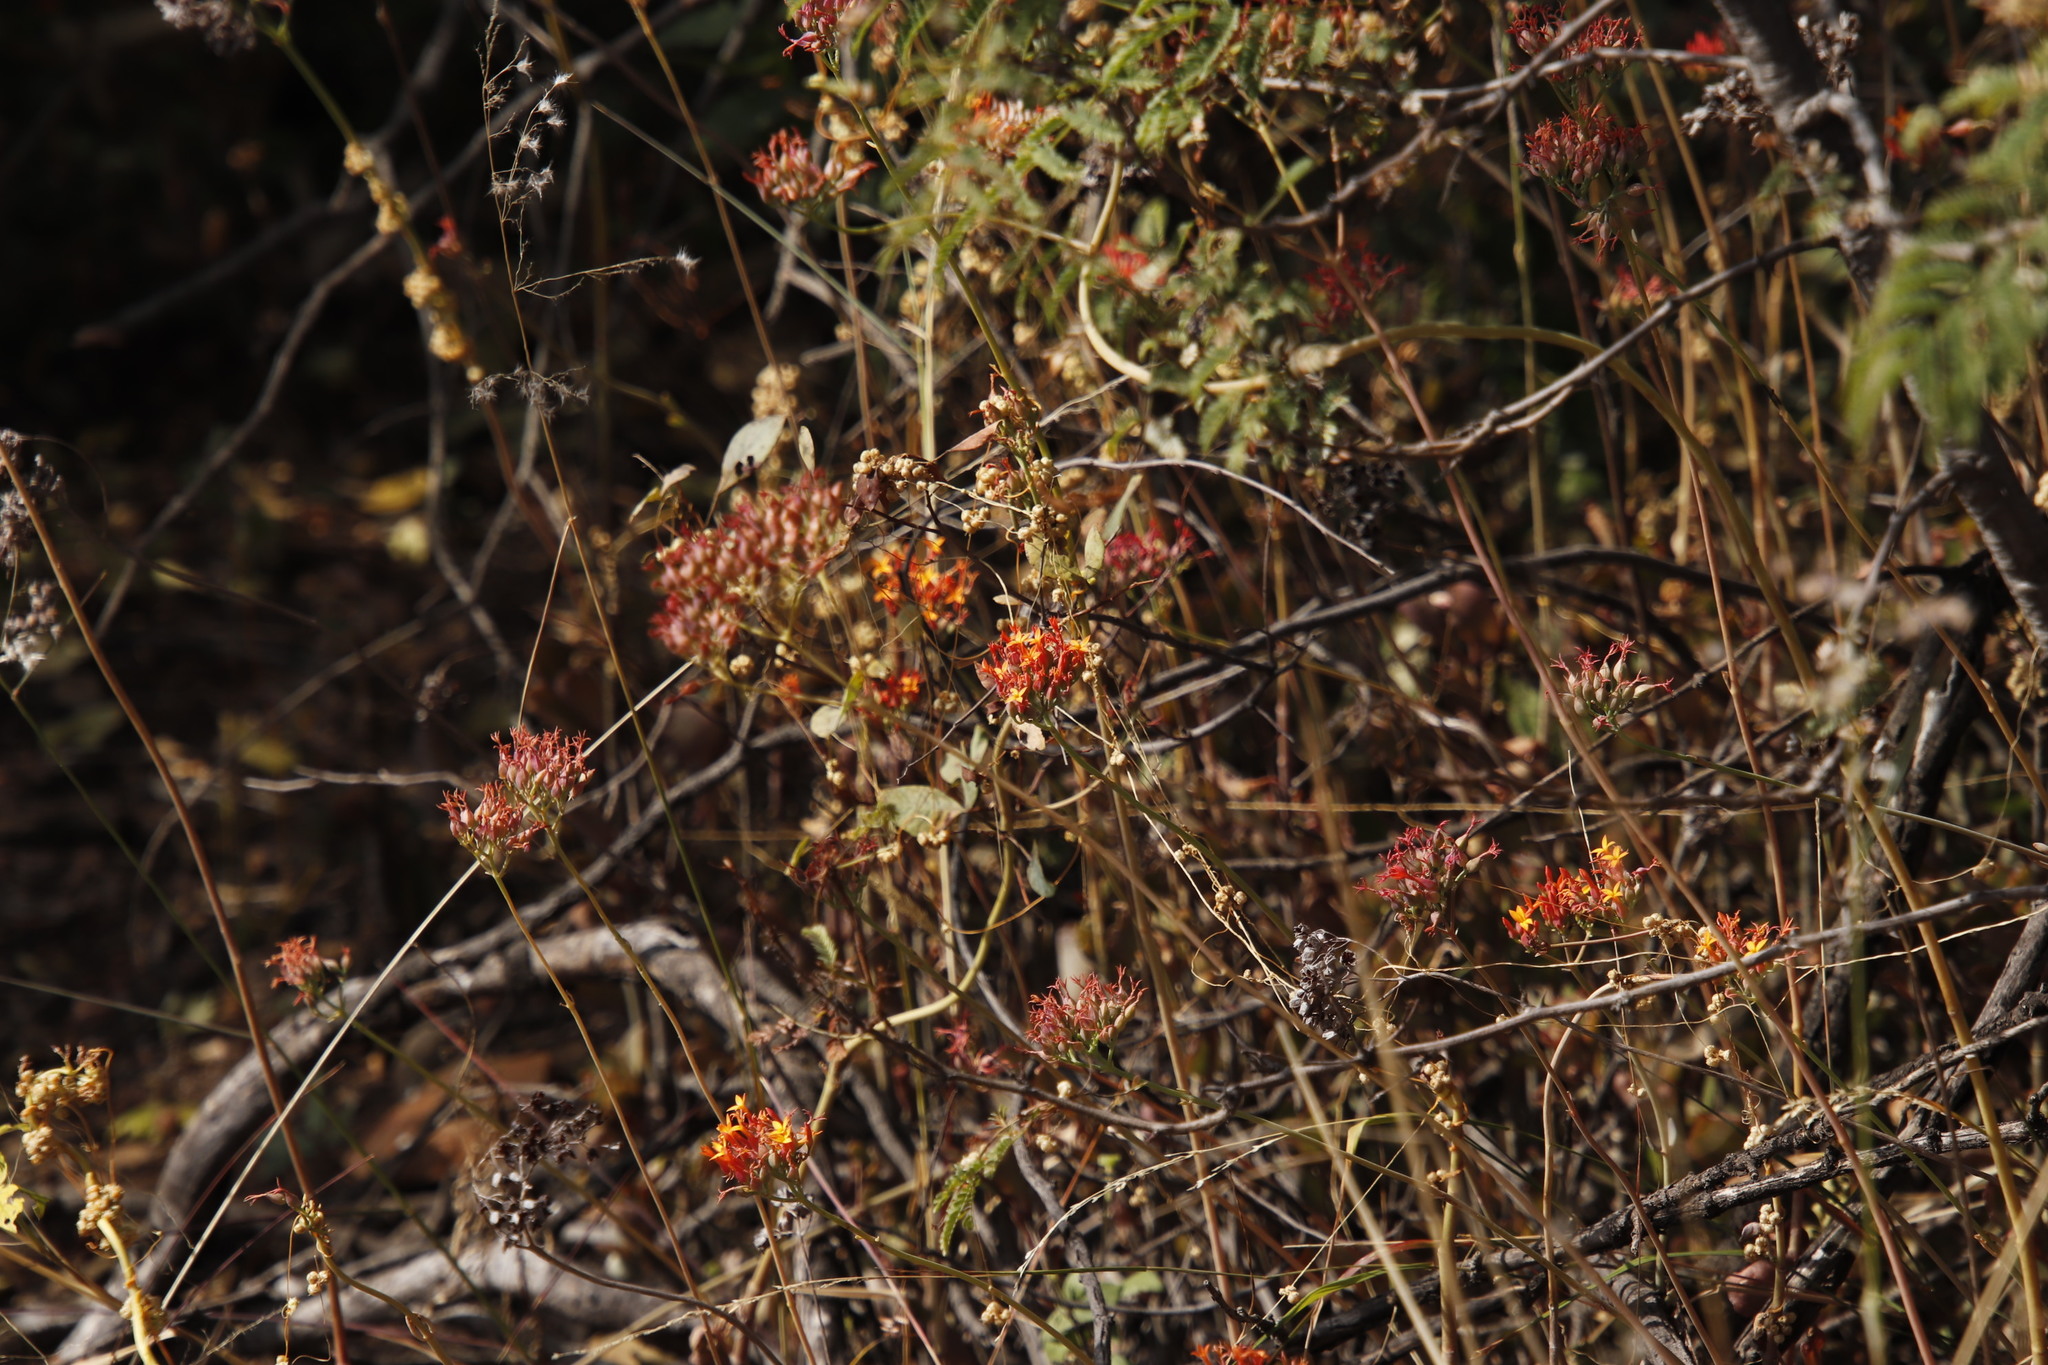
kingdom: Plantae
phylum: Tracheophyta
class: Magnoliopsida
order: Saxifragales
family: Crassulaceae
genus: Kalanchoe
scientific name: Kalanchoe rotundifolia
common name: Common kalanchoe
